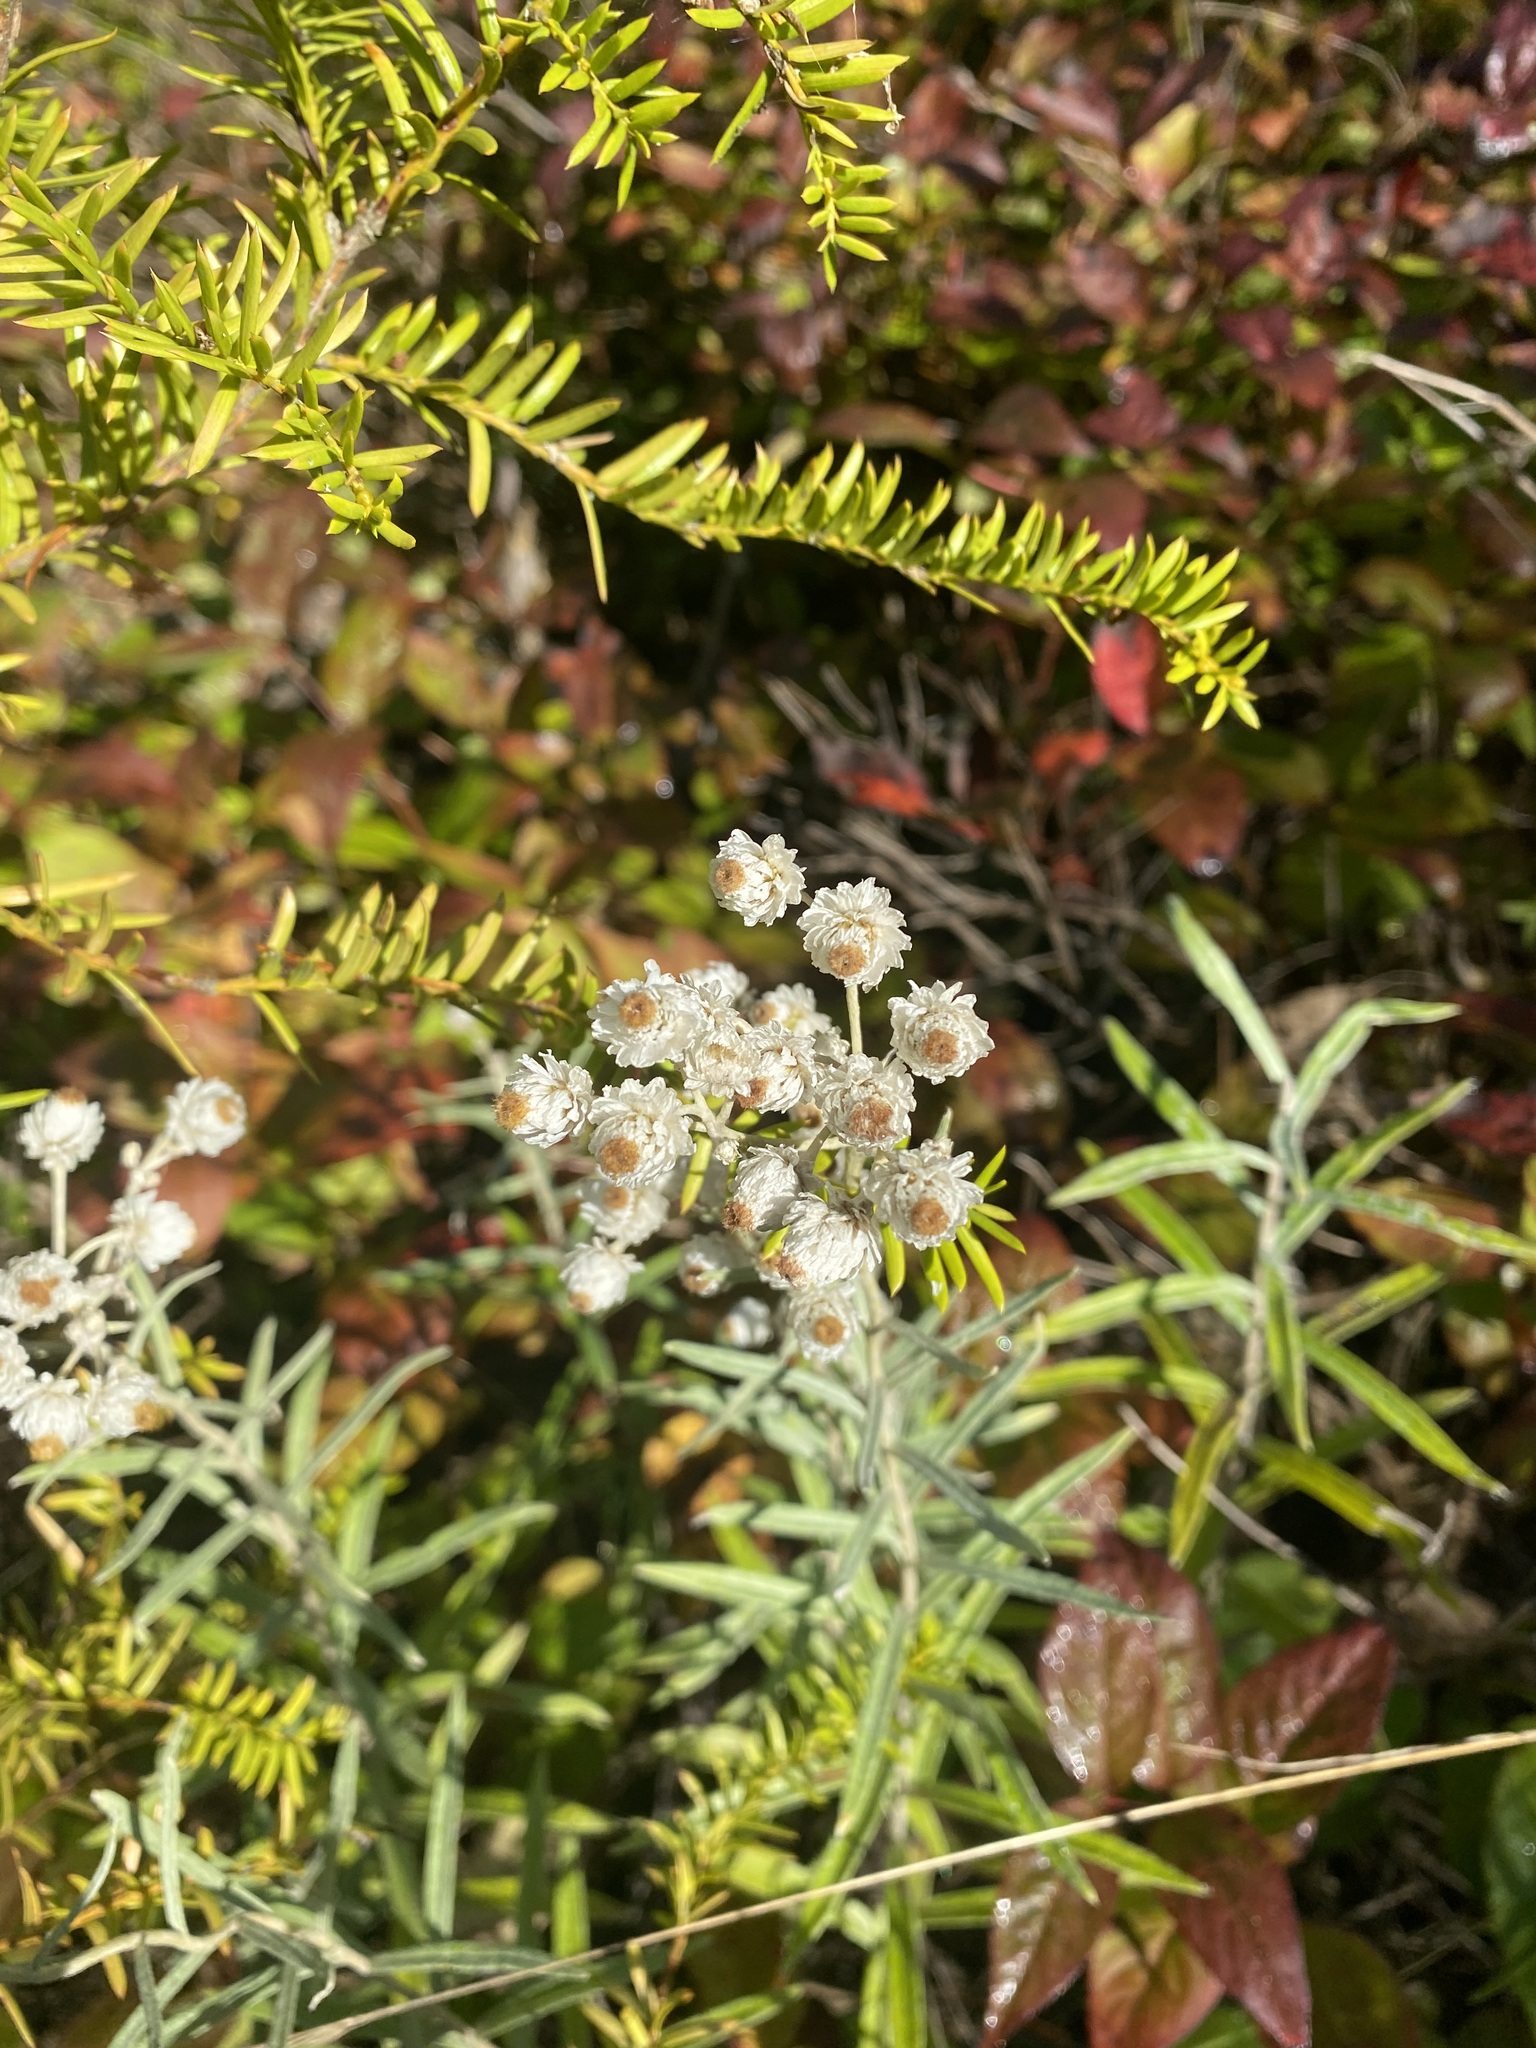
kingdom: Plantae
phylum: Tracheophyta
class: Magnoliopsida
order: Asterales
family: Asteraceae
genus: Anaphalis
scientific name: Anaphalis margaritacea
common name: Pearly everlasting
